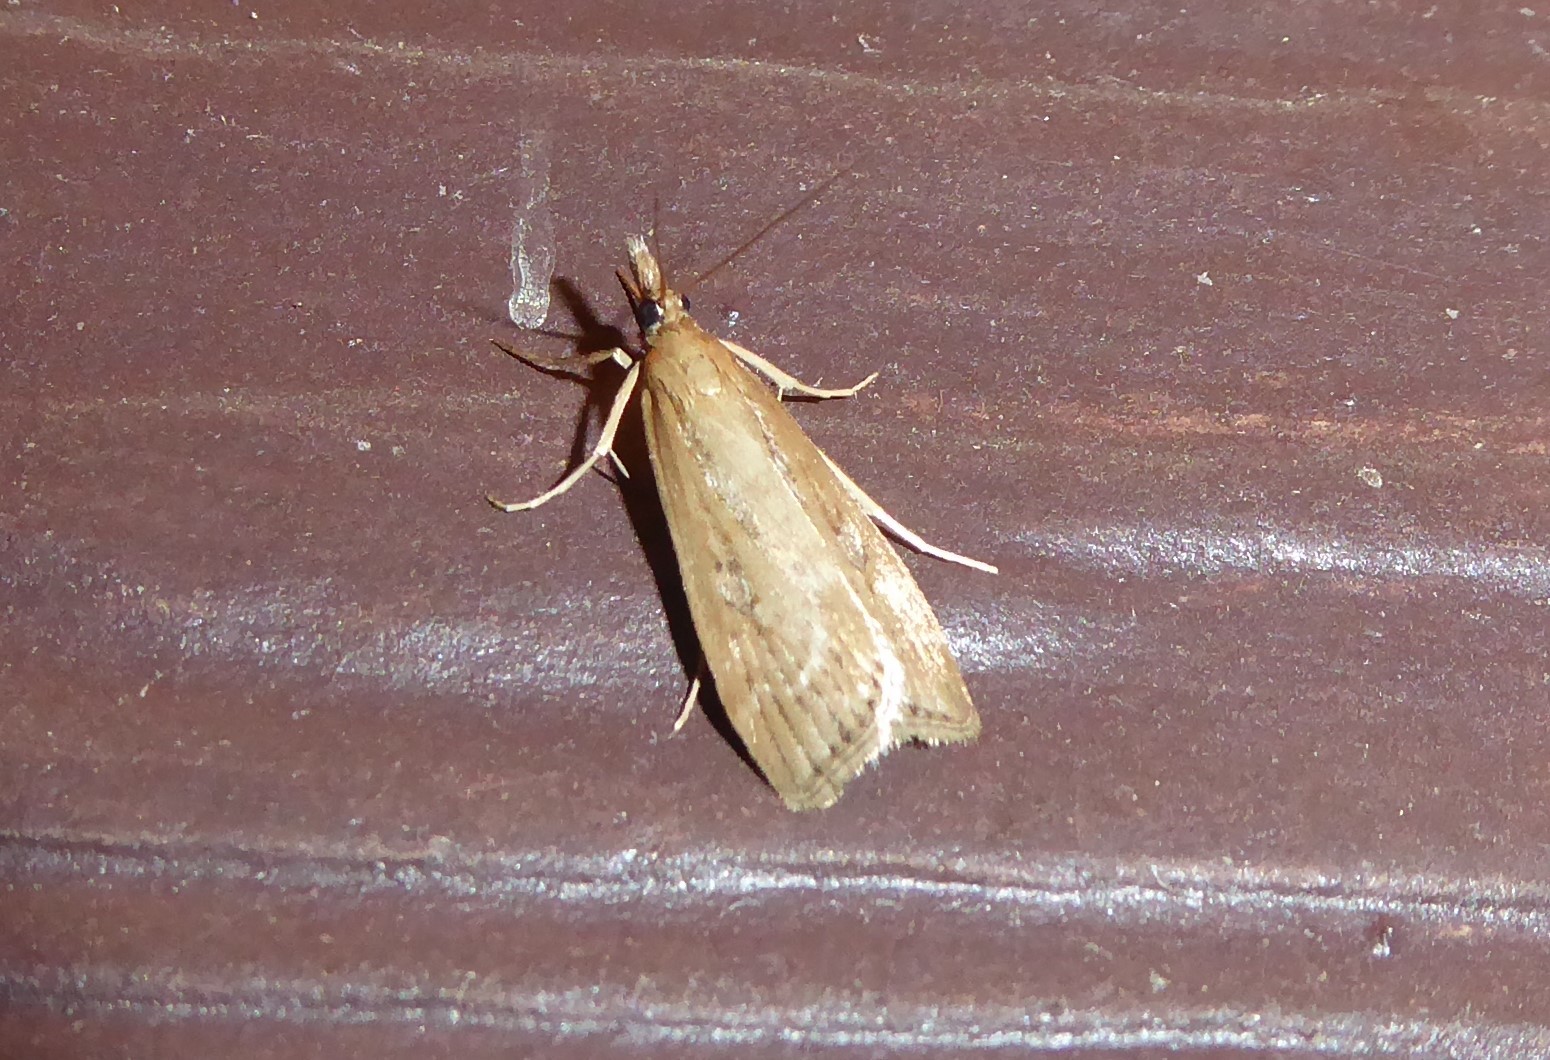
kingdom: Animalia
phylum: Arthropoda
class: Insecta
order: Lepidoptera
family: Crambidae
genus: Eudonia
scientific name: Eudonia octophora
